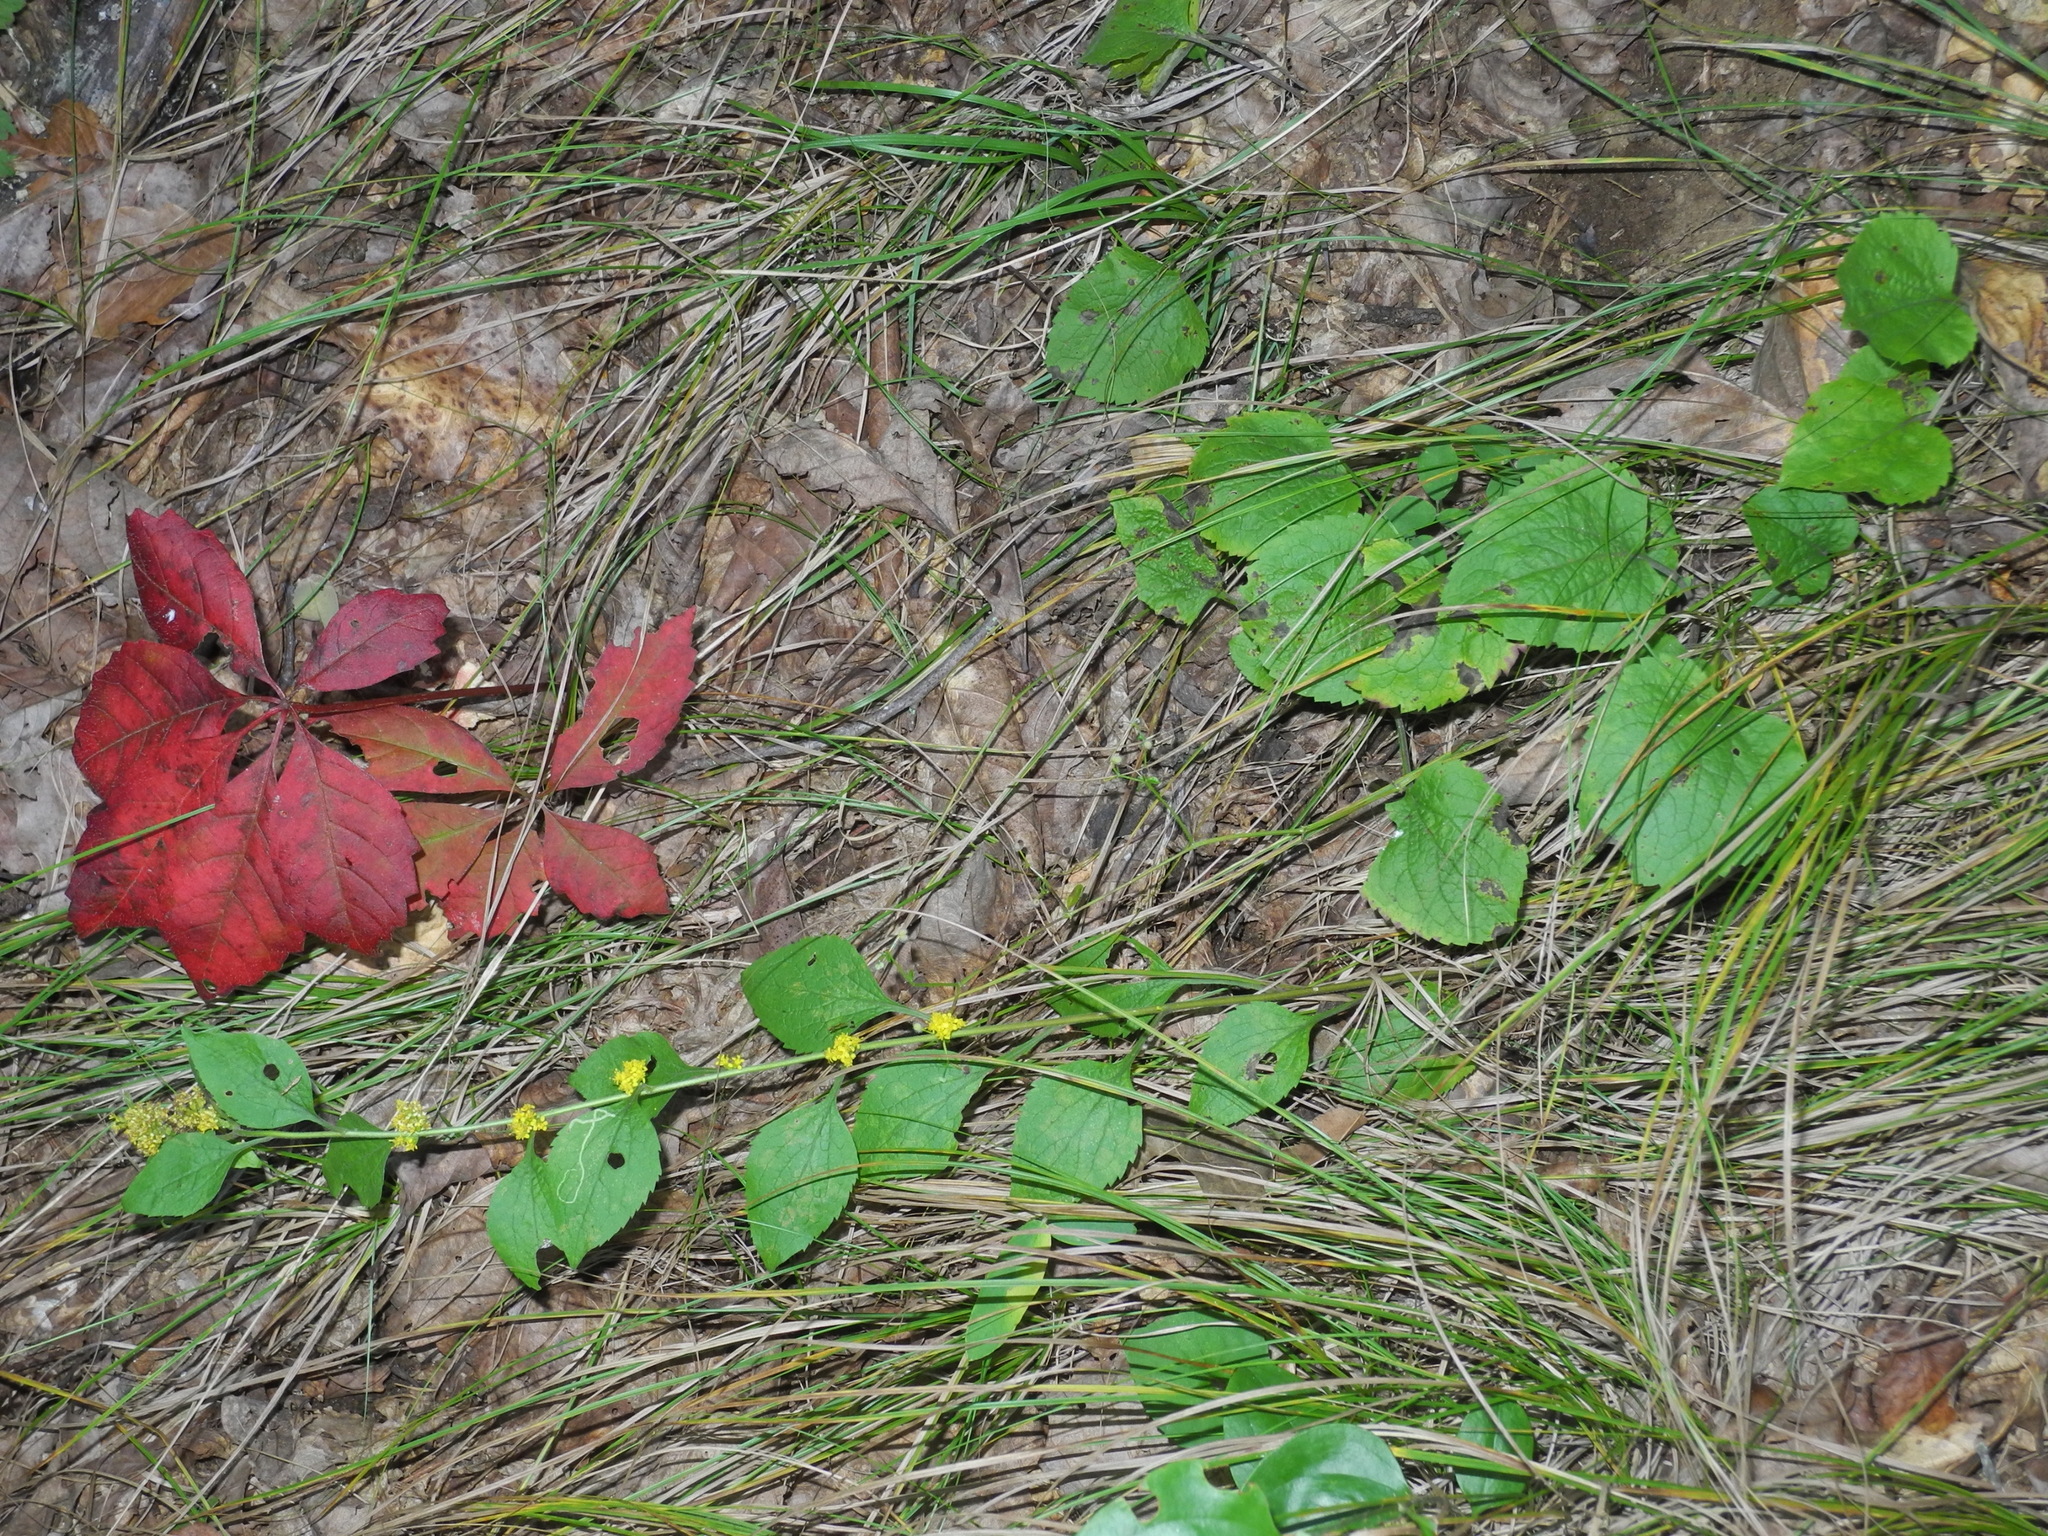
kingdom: Plantae
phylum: Tracheophyta
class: Magnoliopsida
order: Asterales
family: Asteraceae
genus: Solidago
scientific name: Solidago sphacelata
